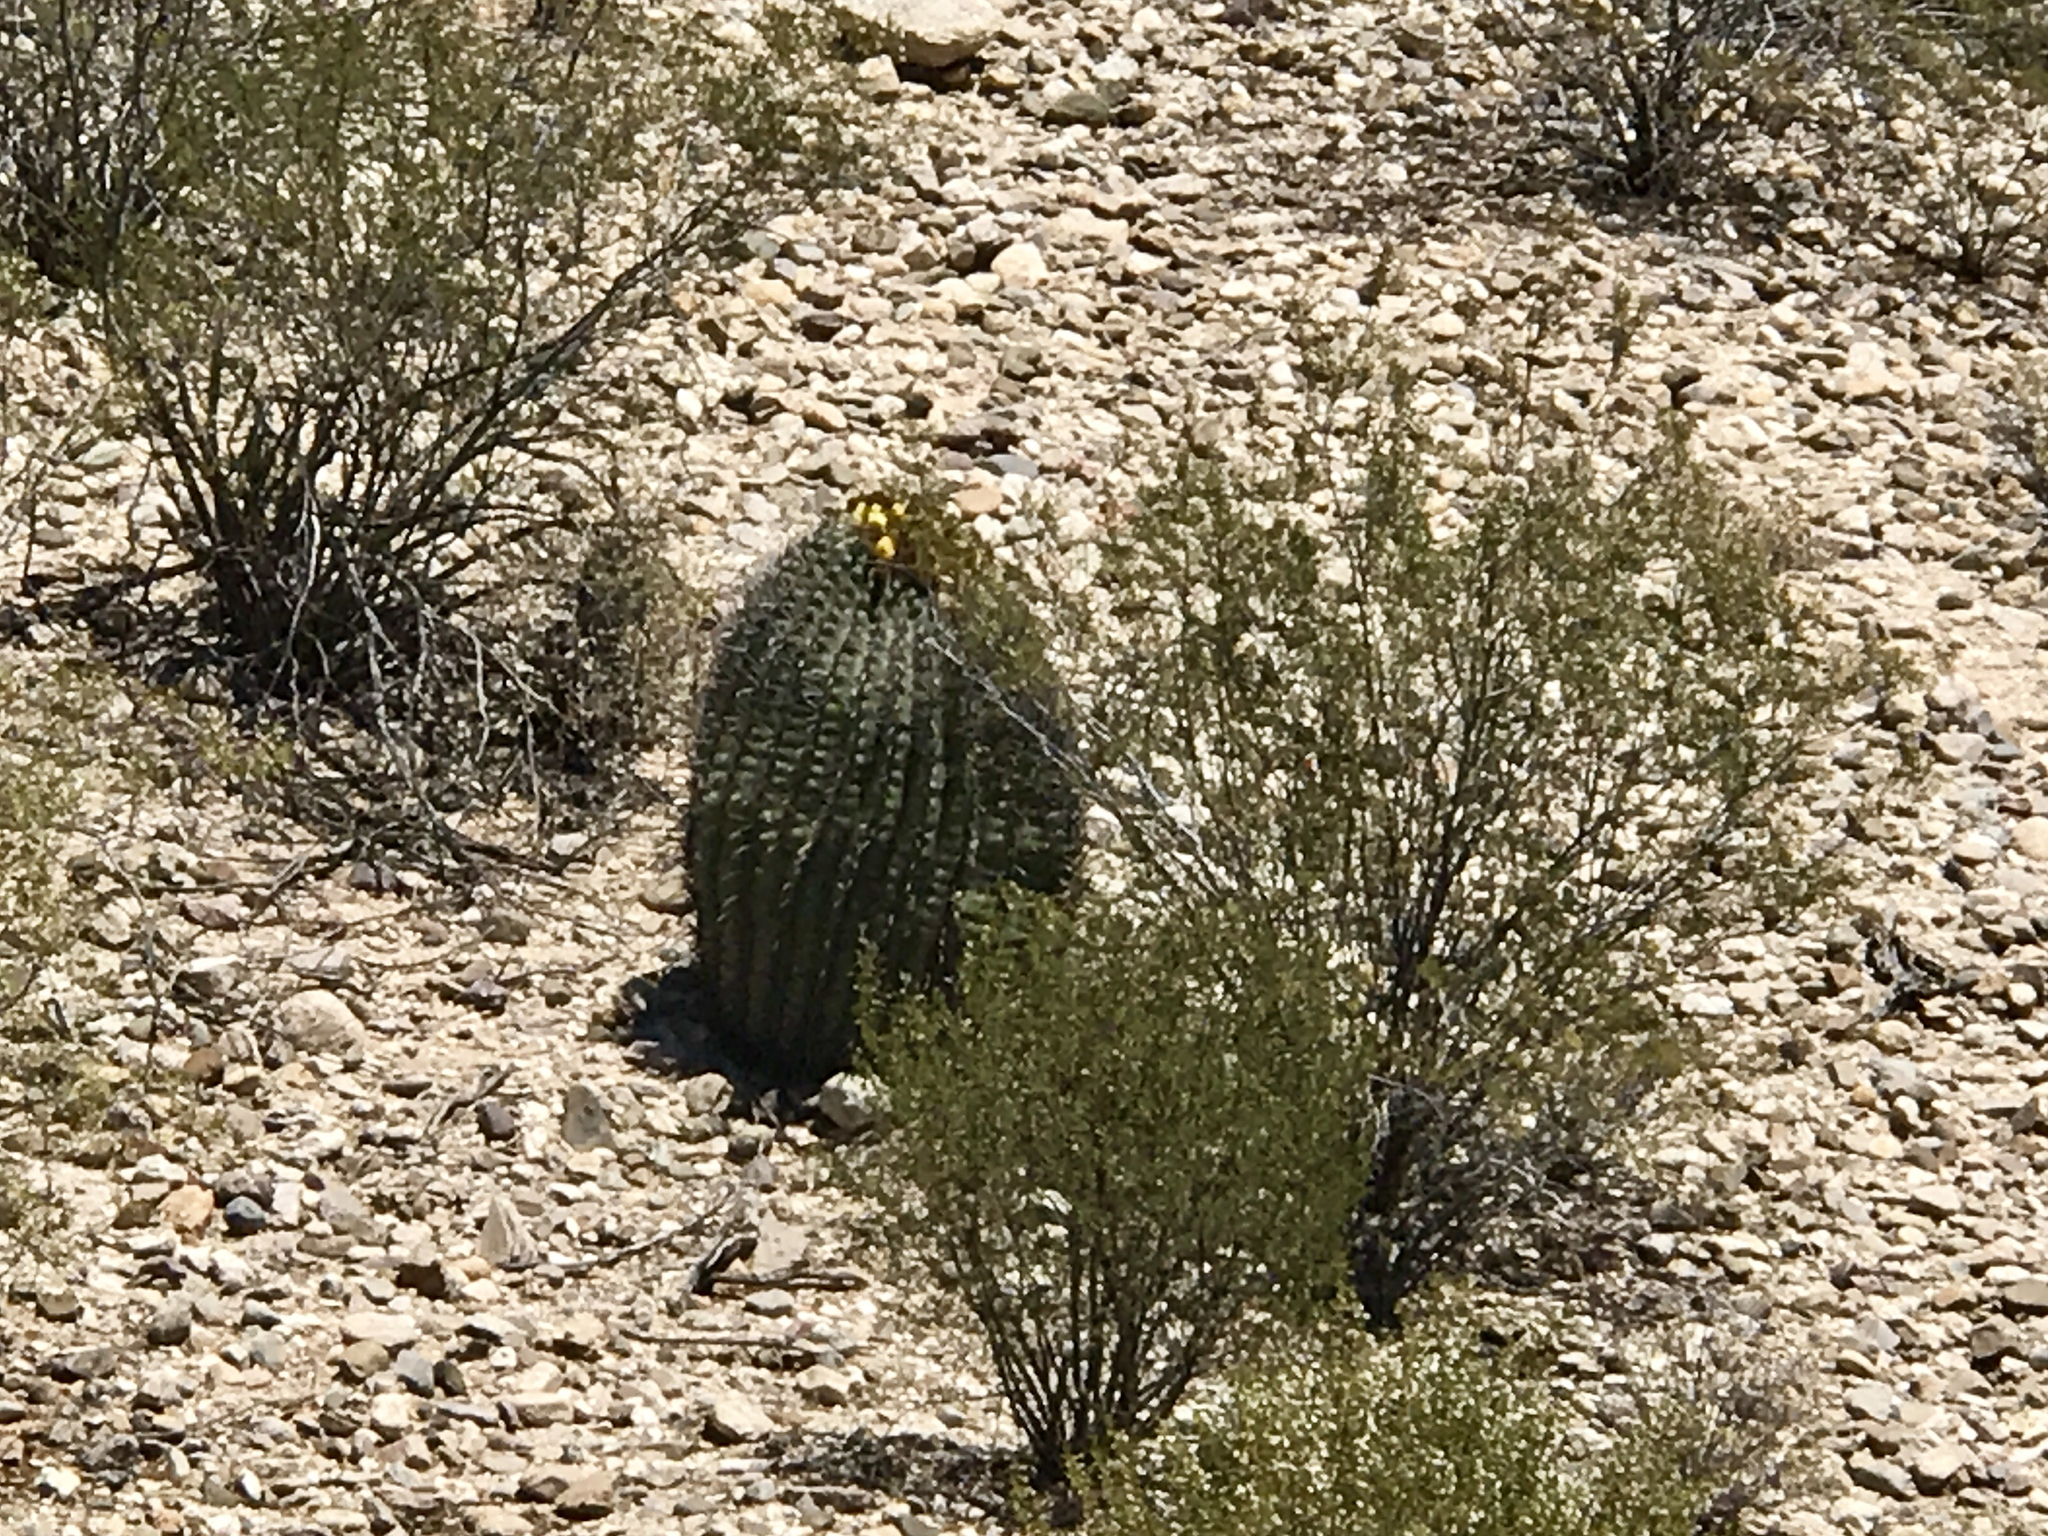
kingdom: Plantae
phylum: Tracheophyta
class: Magnoliopsida
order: Caryophyllales
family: Cactaceae
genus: Ferocactus
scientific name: Ferocactus wislizeni
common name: Candy barrel cactus
